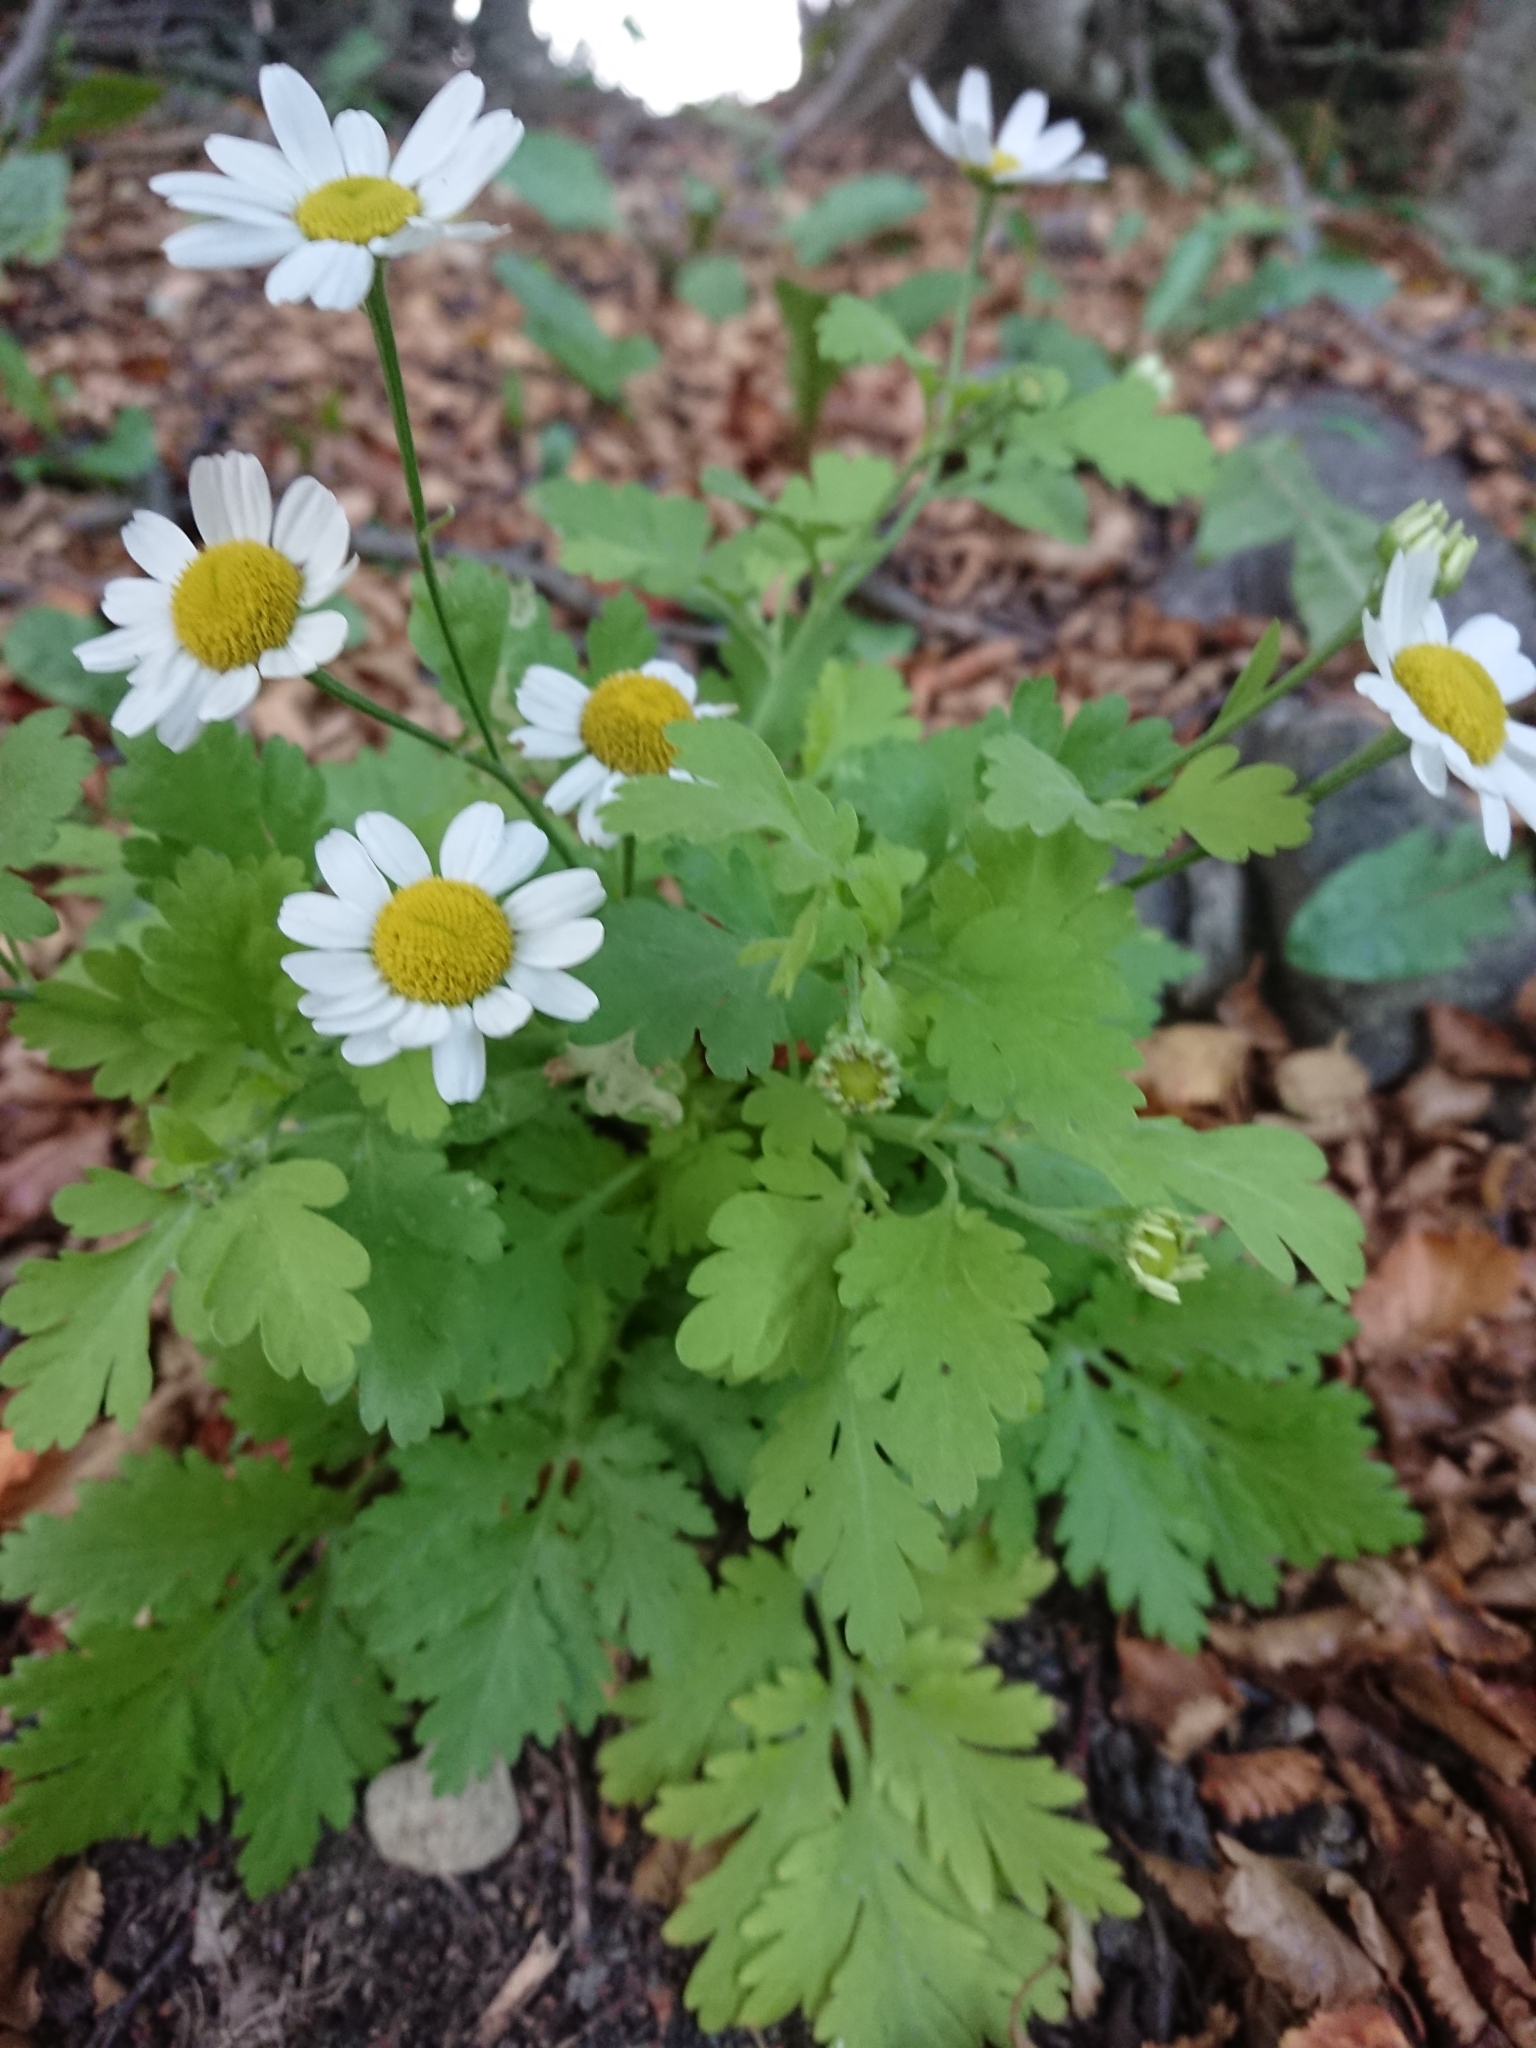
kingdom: Plantae
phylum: Tracheophyta
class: Magnoliopsida
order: Asterales
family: Asteraceae
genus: Tanacetum
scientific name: Tanacetum parthenium
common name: Feverfew
